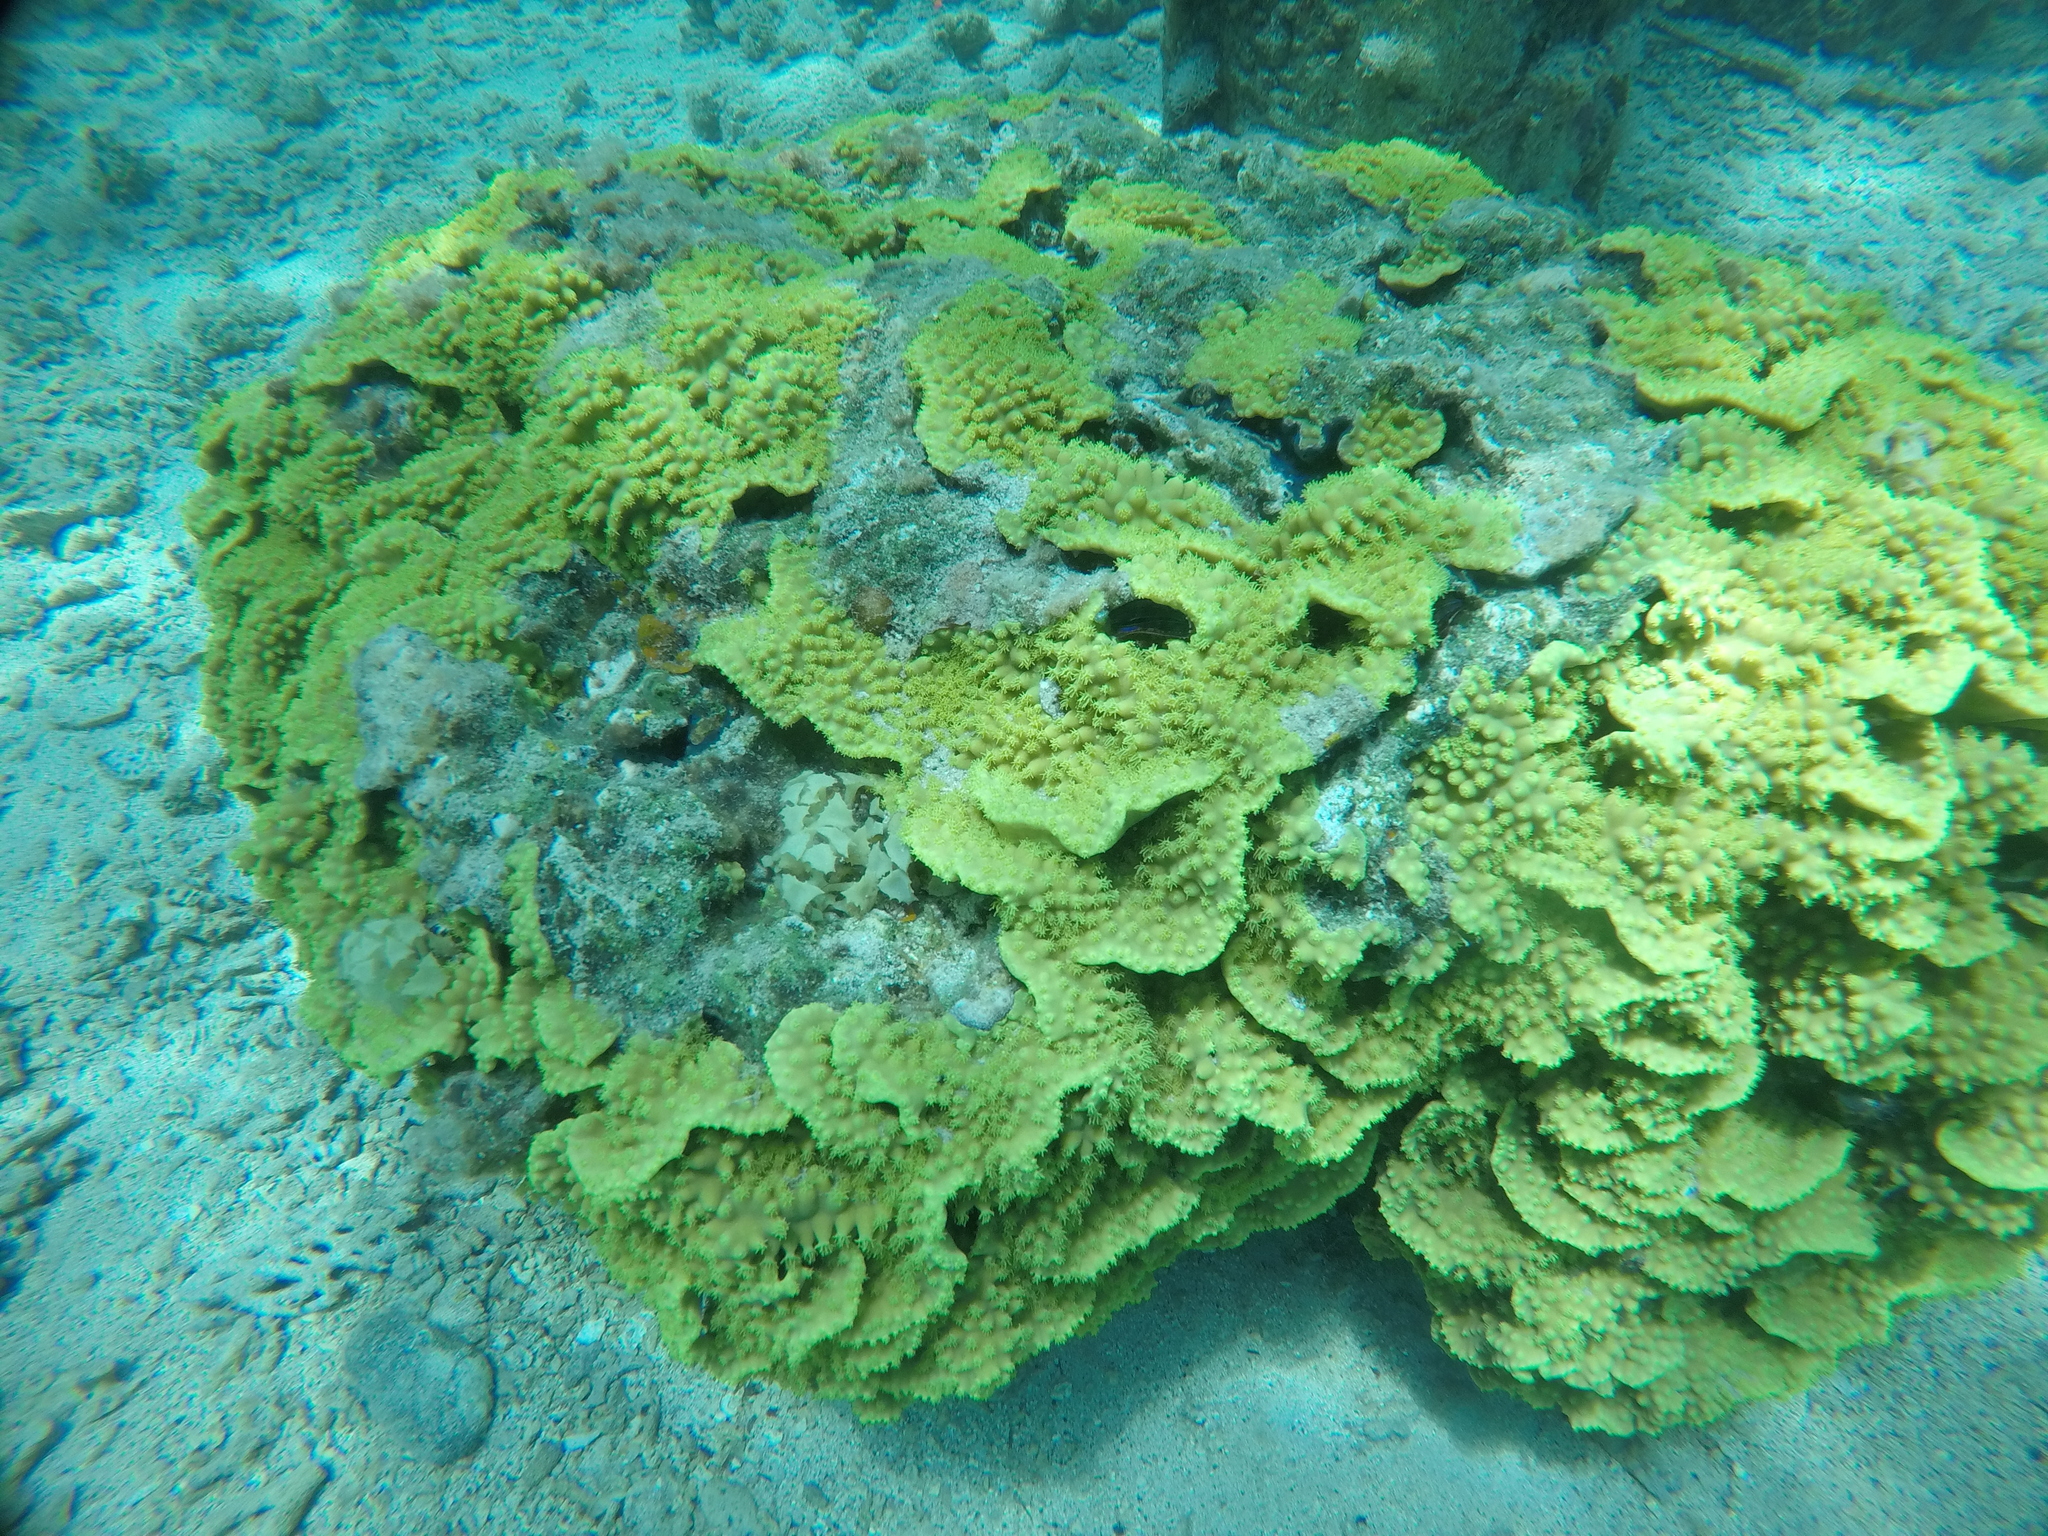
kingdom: Animalia
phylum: Cnidaria
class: Anthozoa
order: Scleractinia
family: Dendrophylliidae
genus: Turbinaria
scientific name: Turbinaria reniformis
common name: Disc coral
